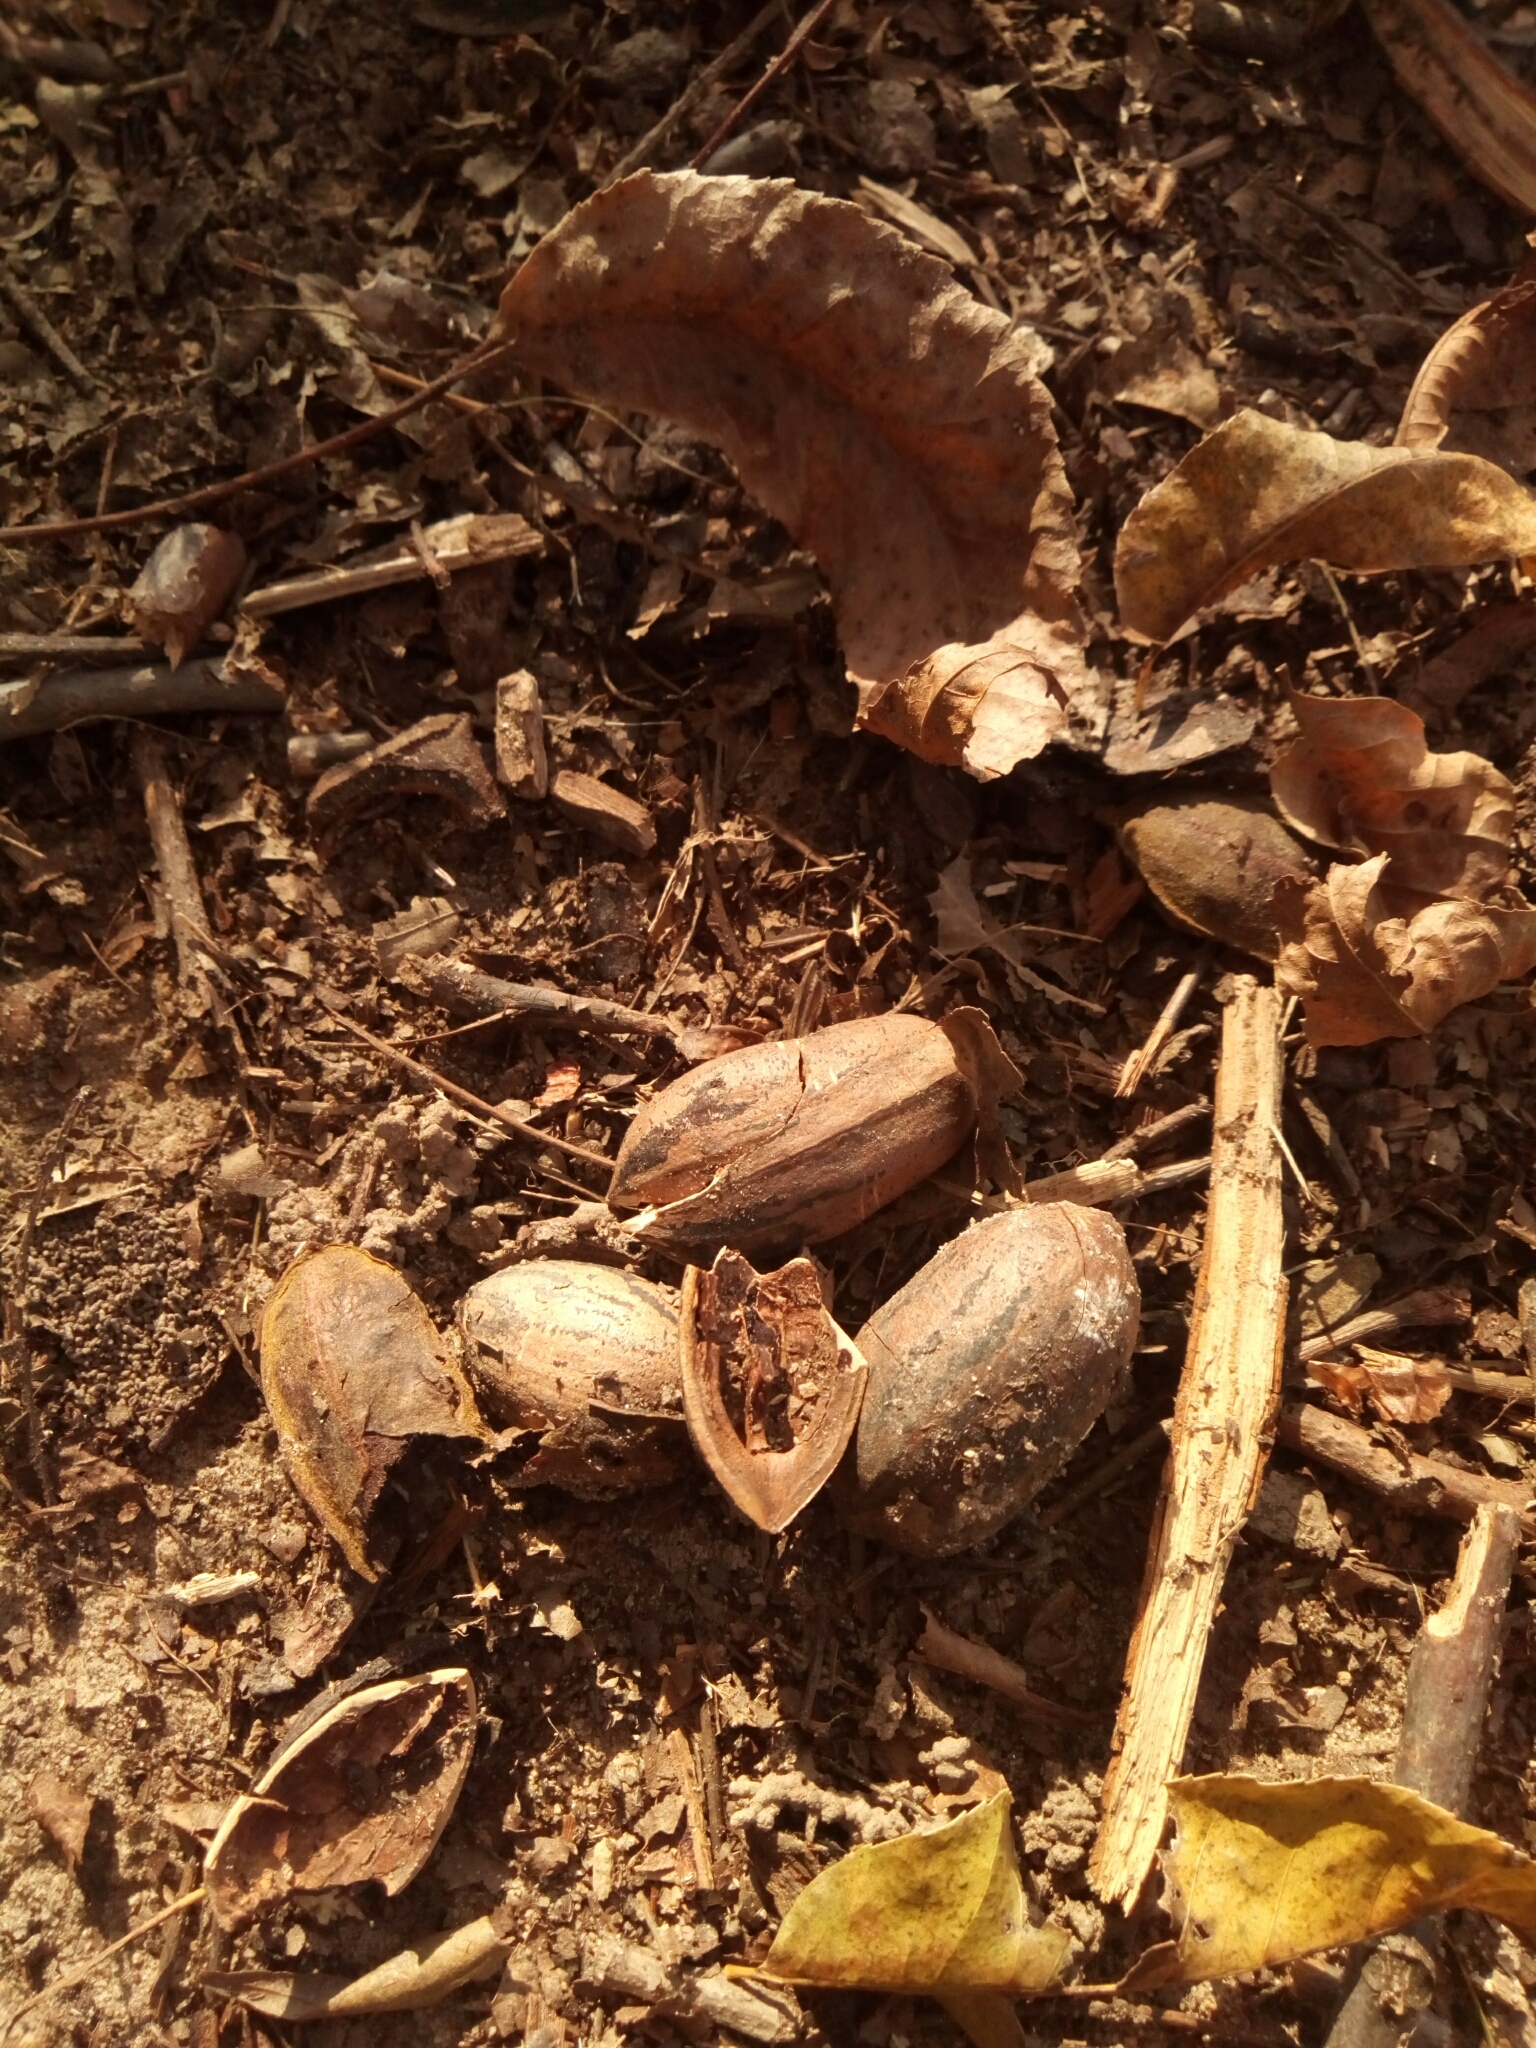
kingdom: Plantae
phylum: Tracheophyta
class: Magnoliopsida
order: Fagales
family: Juglandaceae
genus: Carya
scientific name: Carya illinoinensis
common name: Pecan
